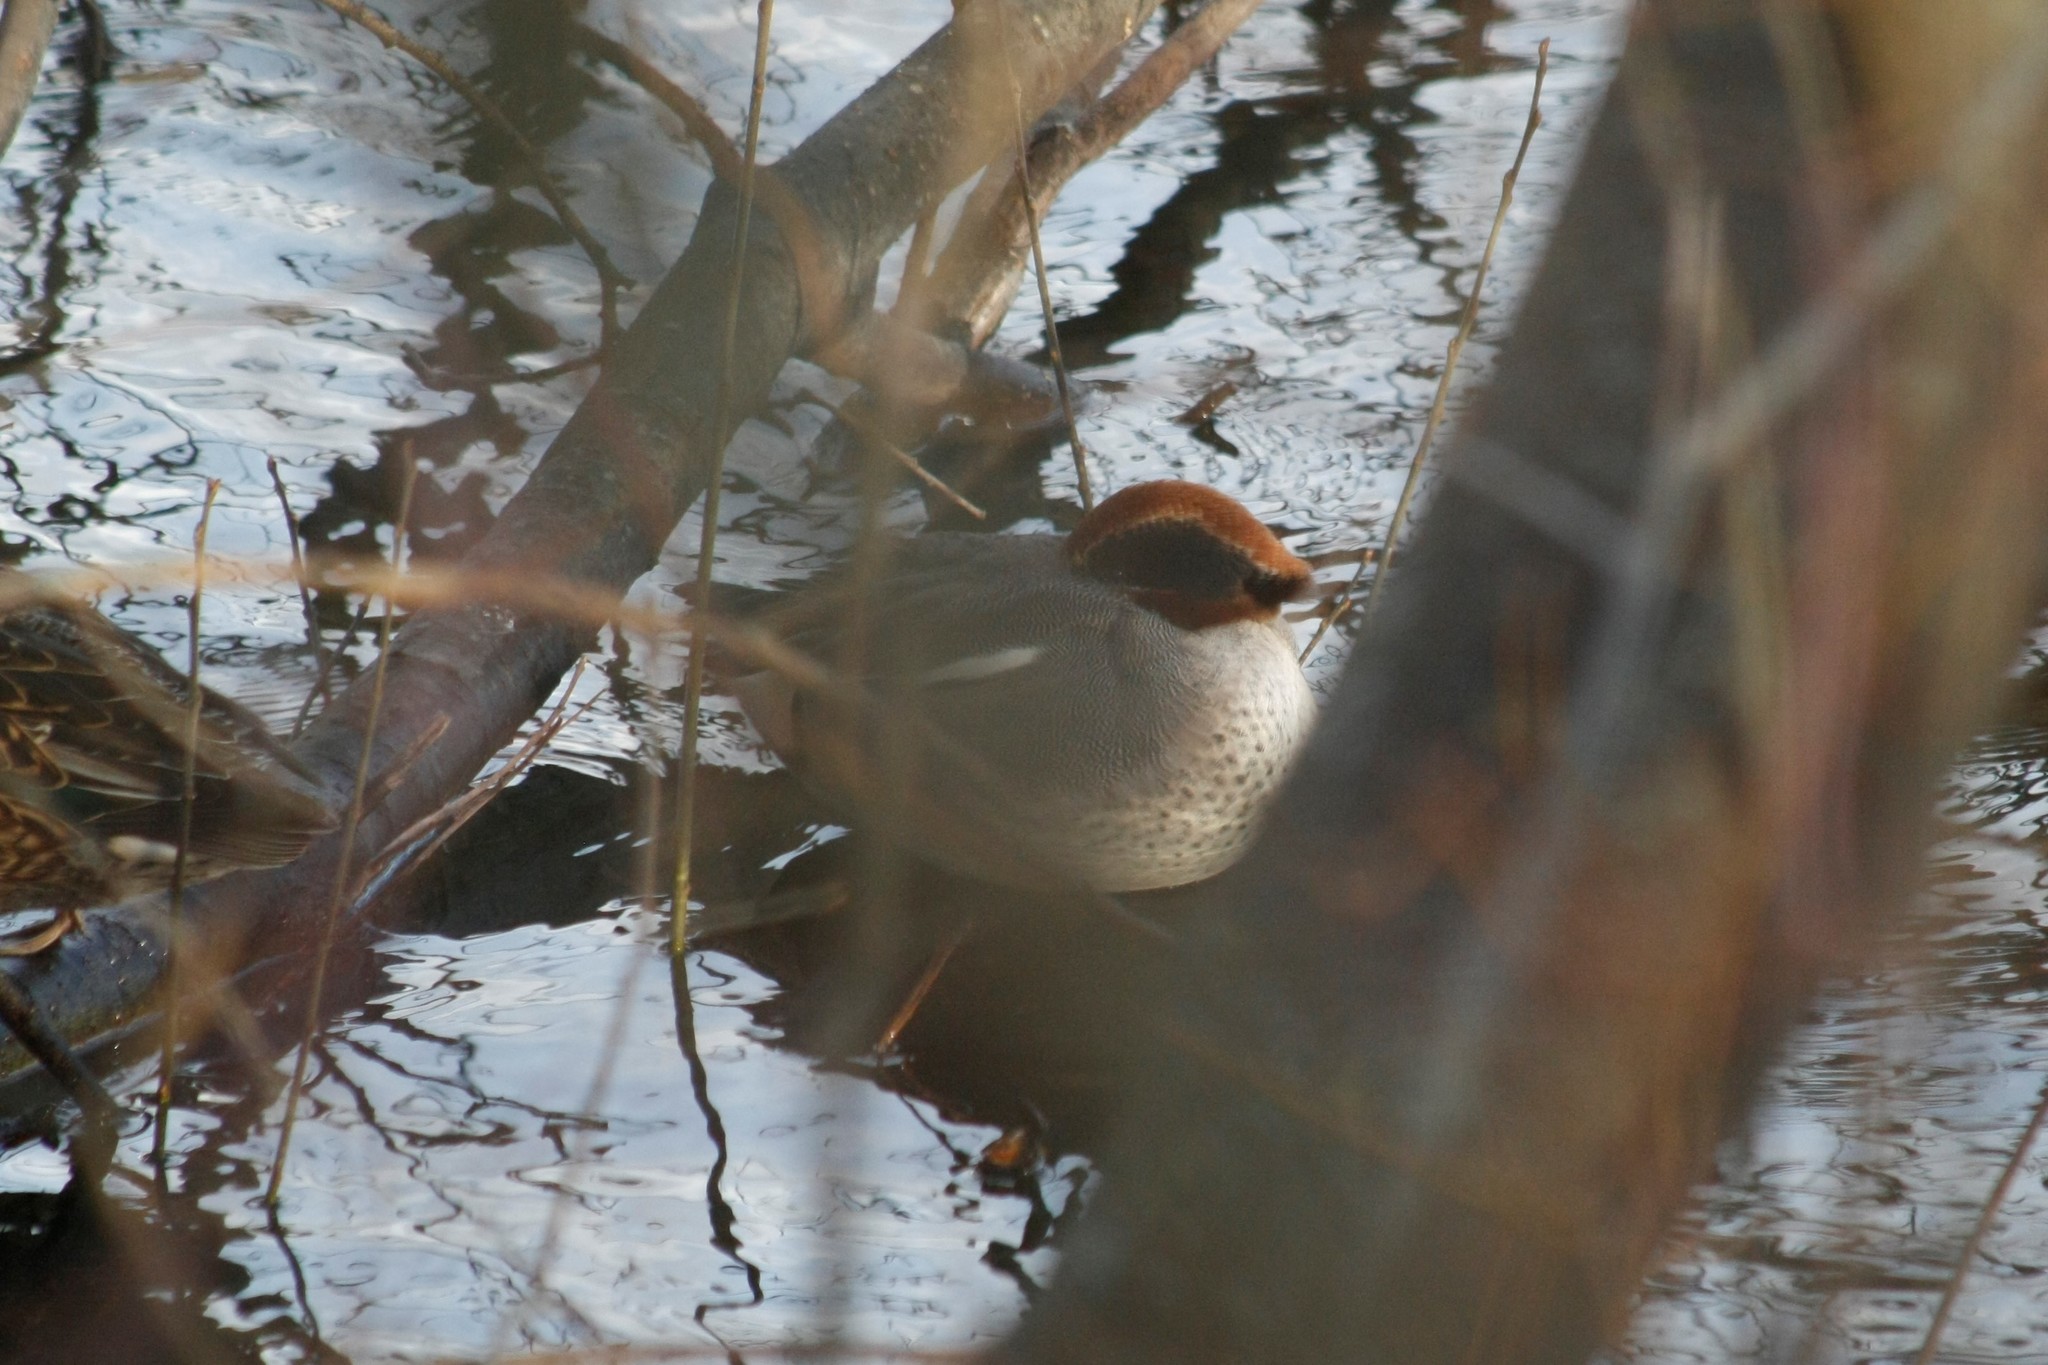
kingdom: Animalia
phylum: Chordata
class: Aves
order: Anseriformes
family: Anatidae
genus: Anas
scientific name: Anas crecca
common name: Eurasian teal
